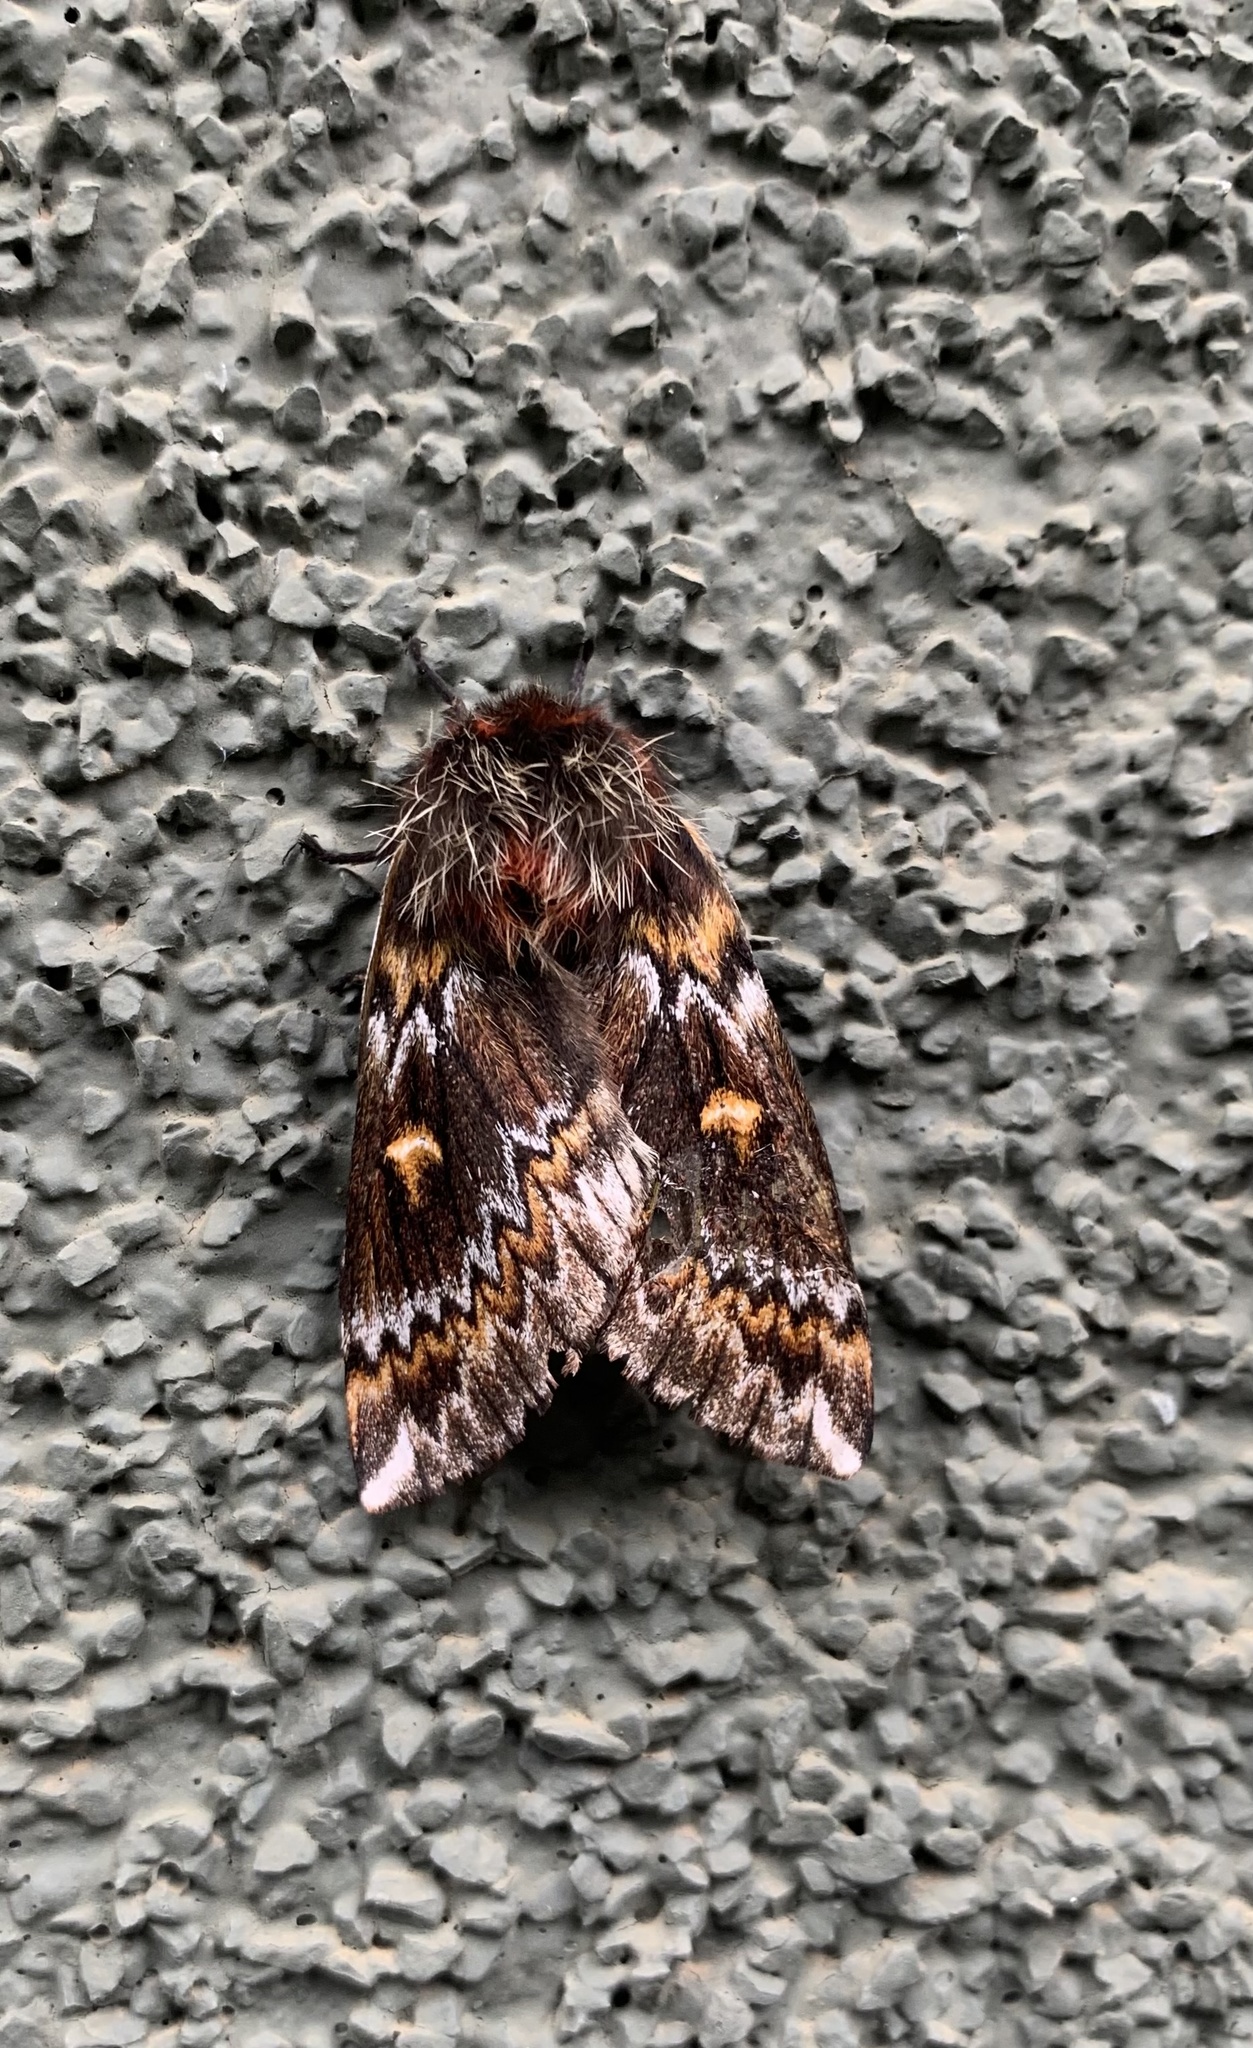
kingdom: Animalia
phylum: Arthropoda
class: Insecta
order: Lepidoptera
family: Saturniidae
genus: Ormiscodes
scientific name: Ormiscodes schmidtnielseni
